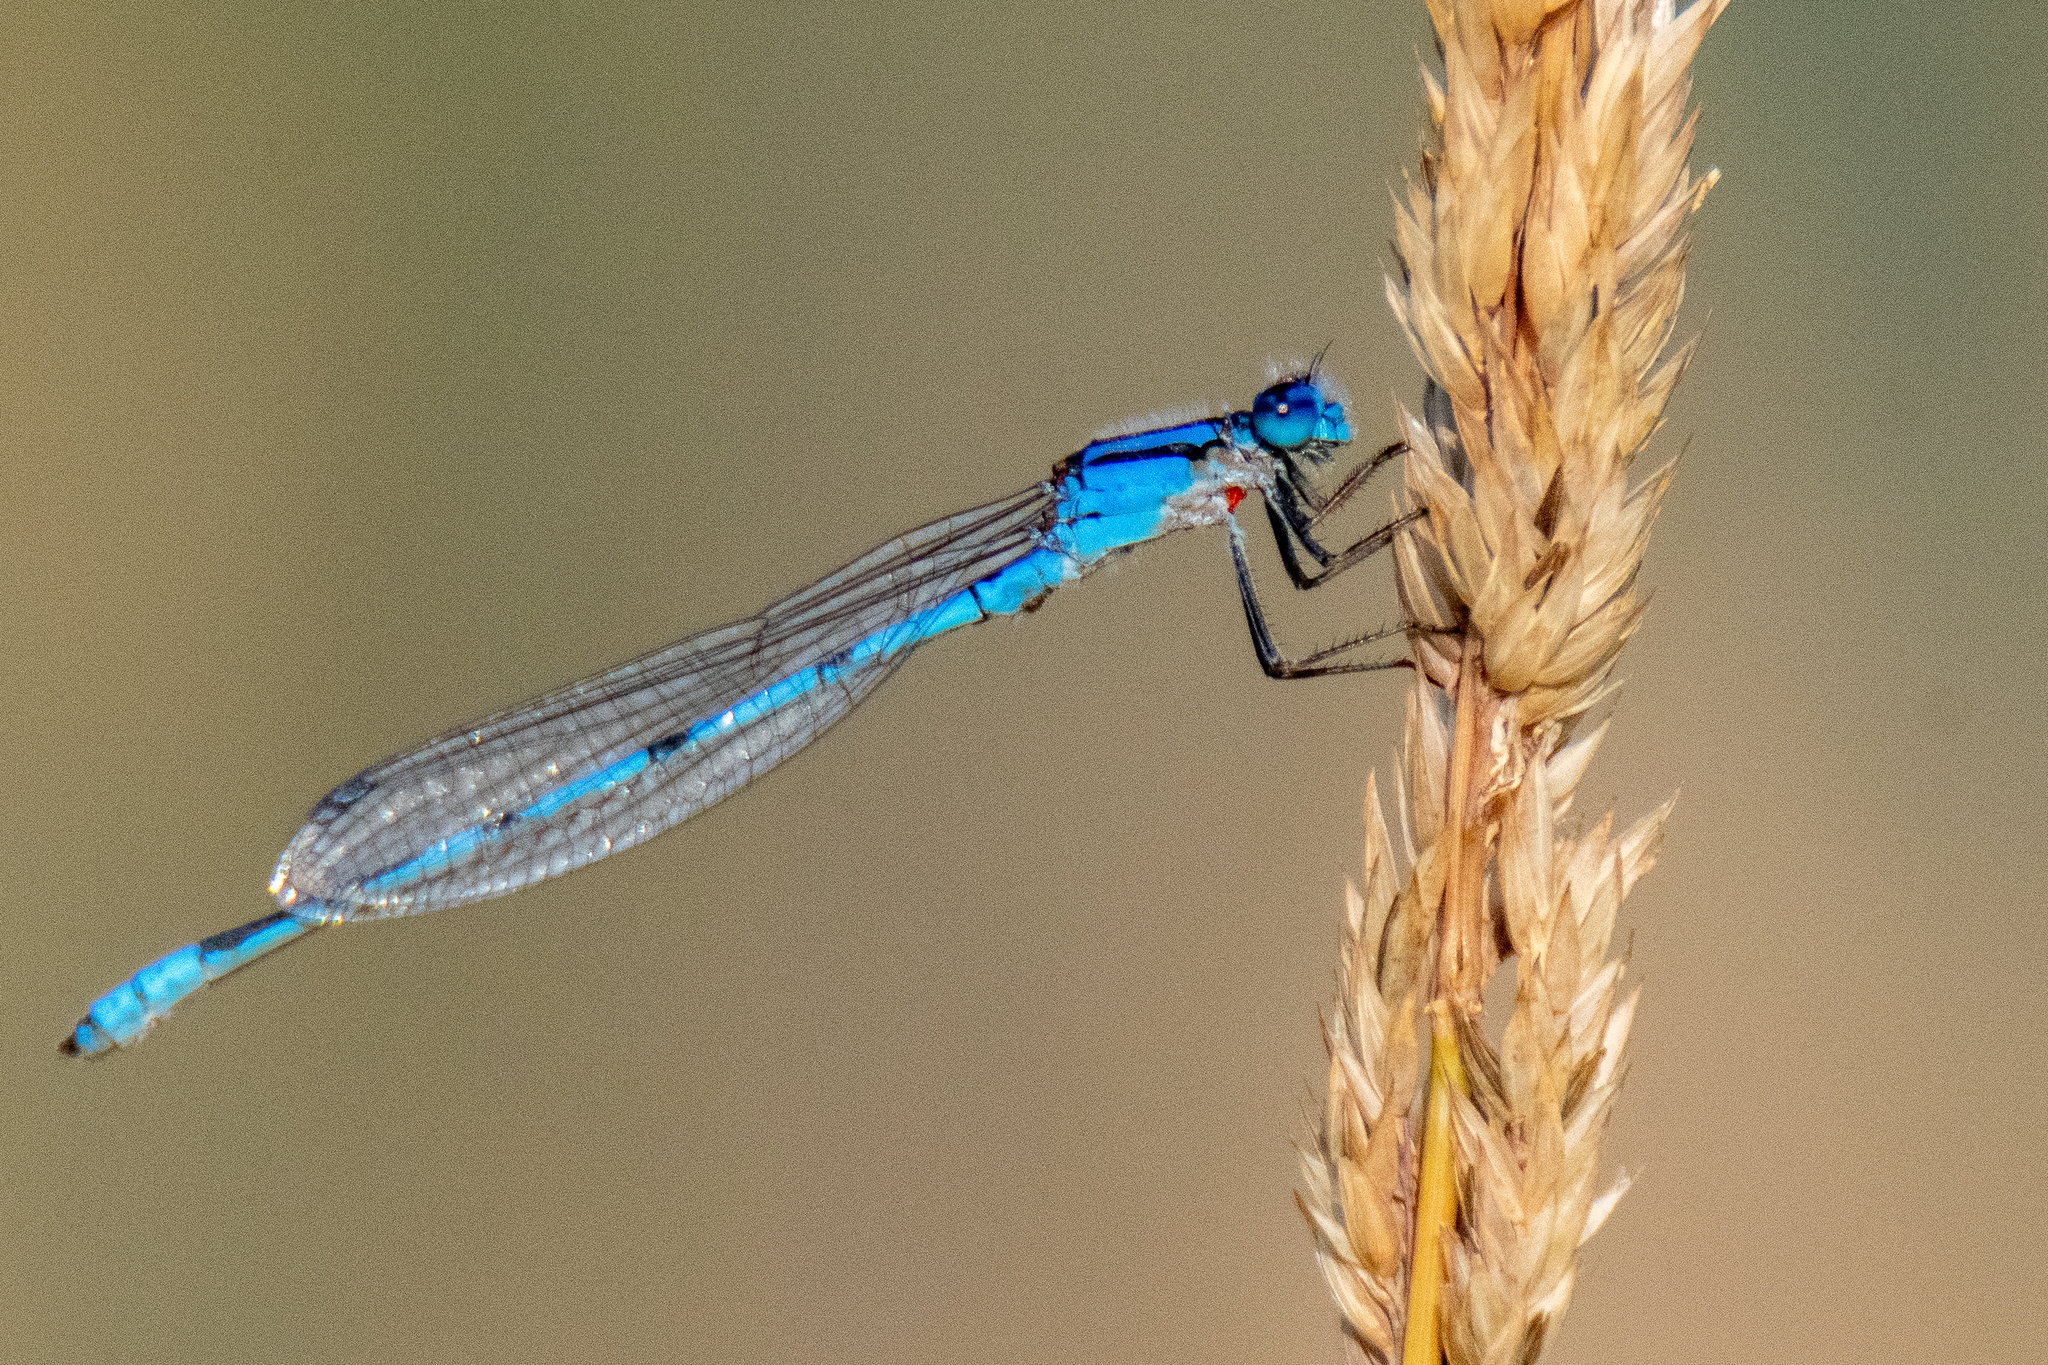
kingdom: Animalia
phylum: Arthropoda
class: Insecta
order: Odonata
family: Coenagrionidae
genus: Enallagma
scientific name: Enallagma civile
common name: Damselfly
